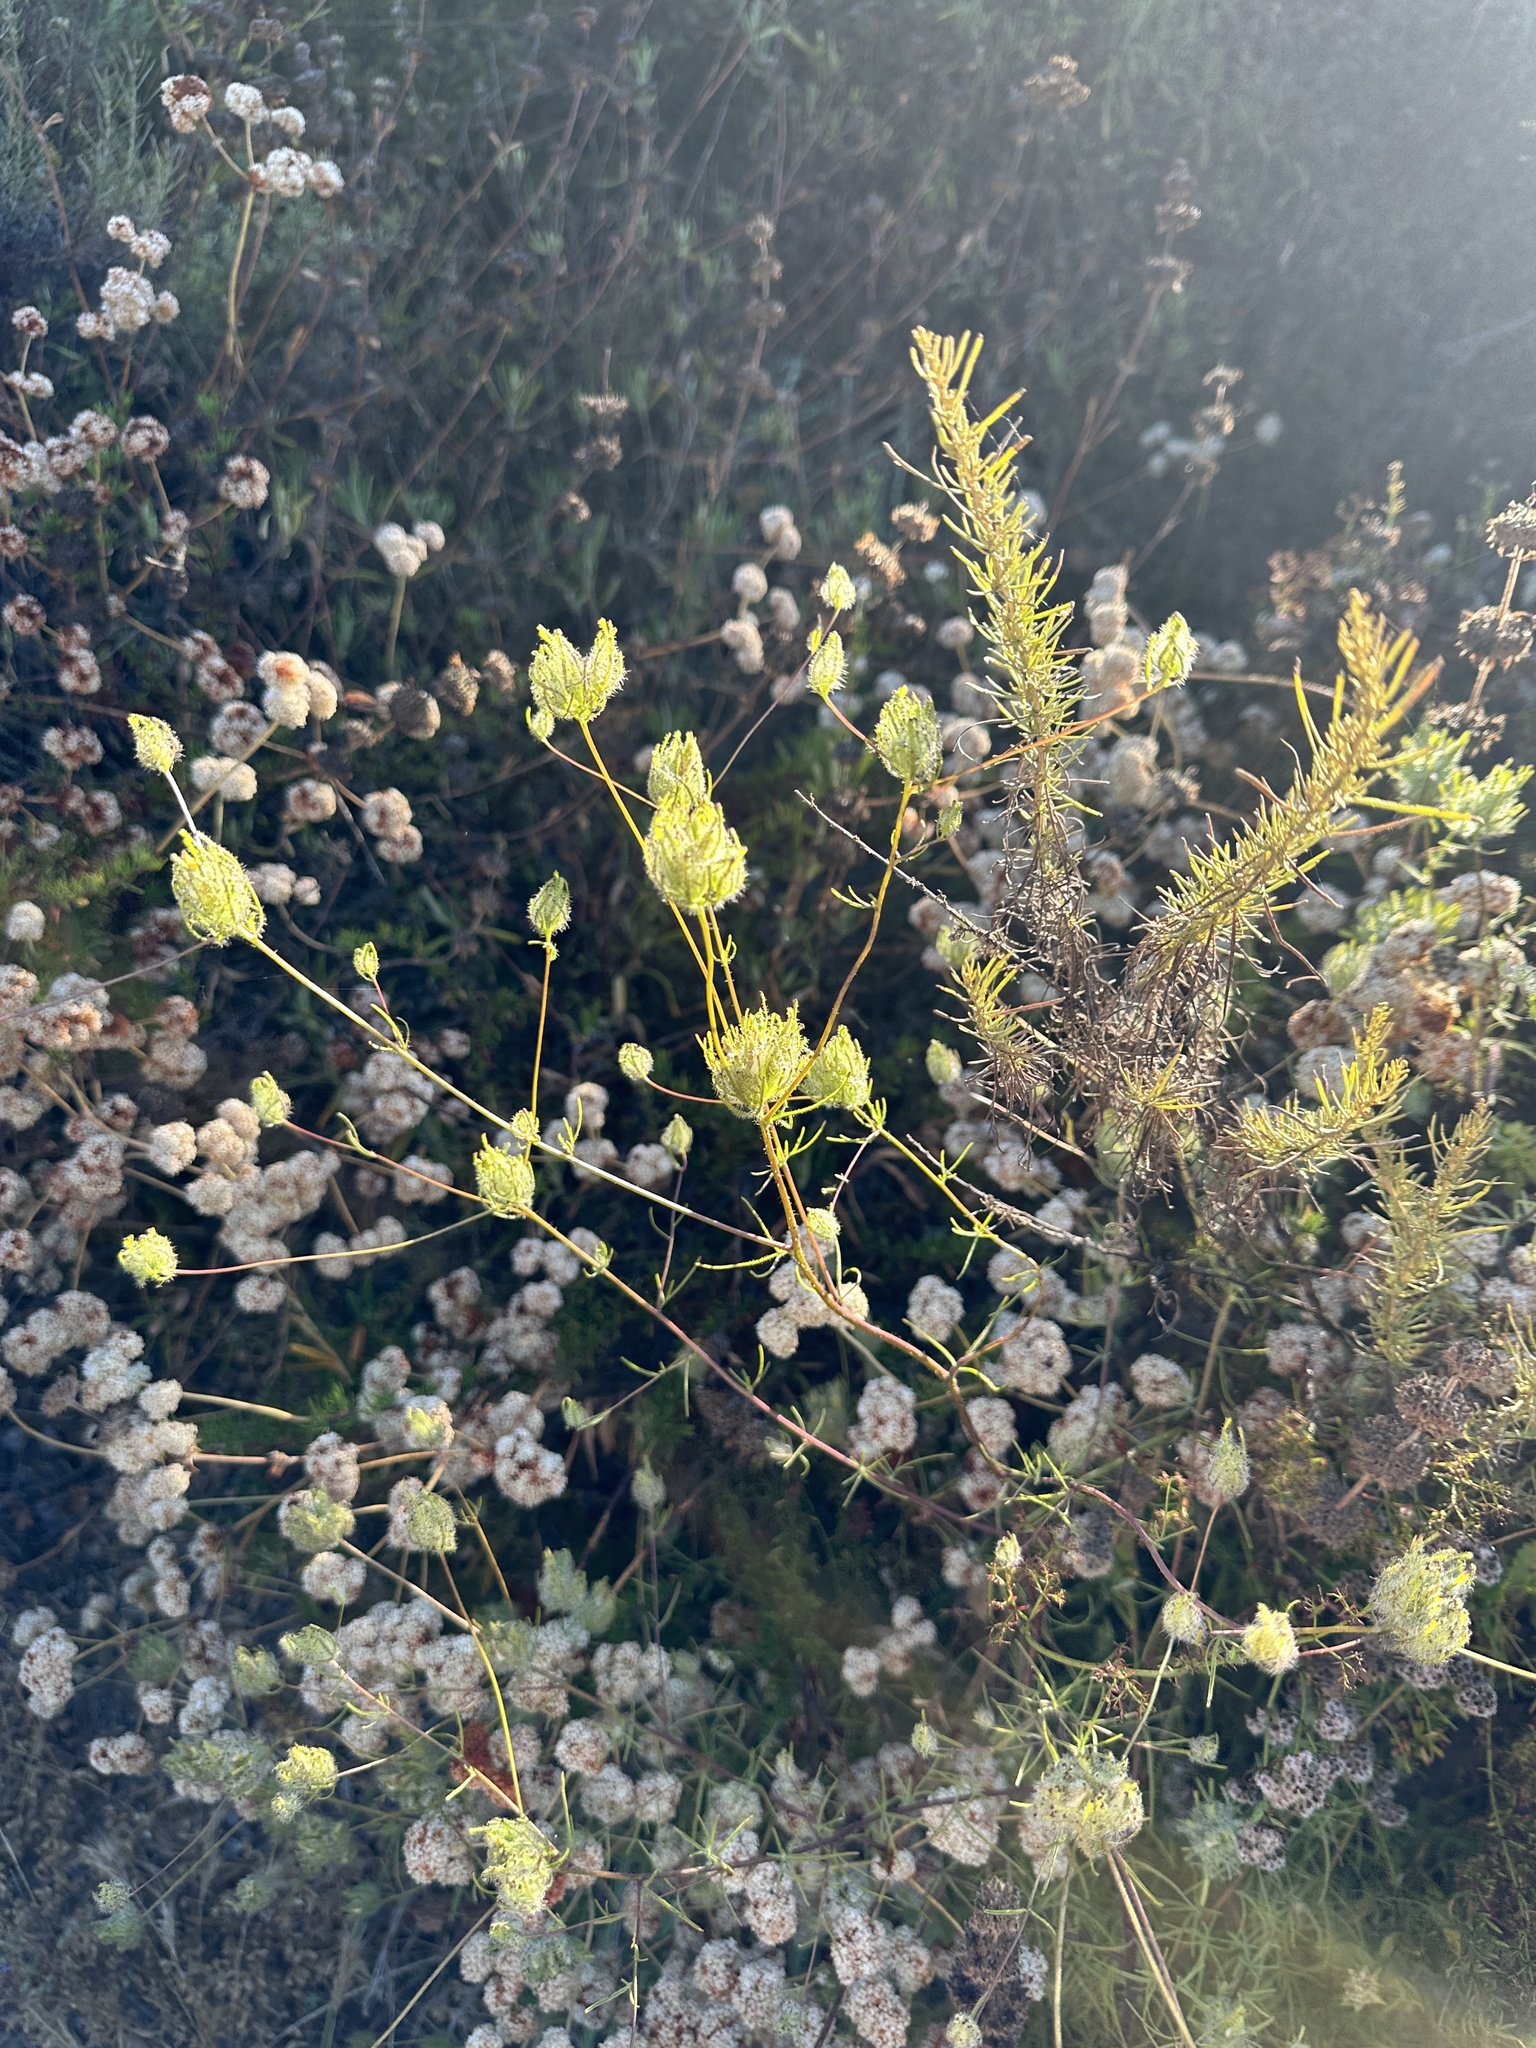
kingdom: Plantae
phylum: Tracheophyta
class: Magnoliopsida
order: Lamiales
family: Orobanchaceae
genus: Cordylanthus
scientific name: Cordylanthus rigidus
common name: Stiff-branch bird's-beak
